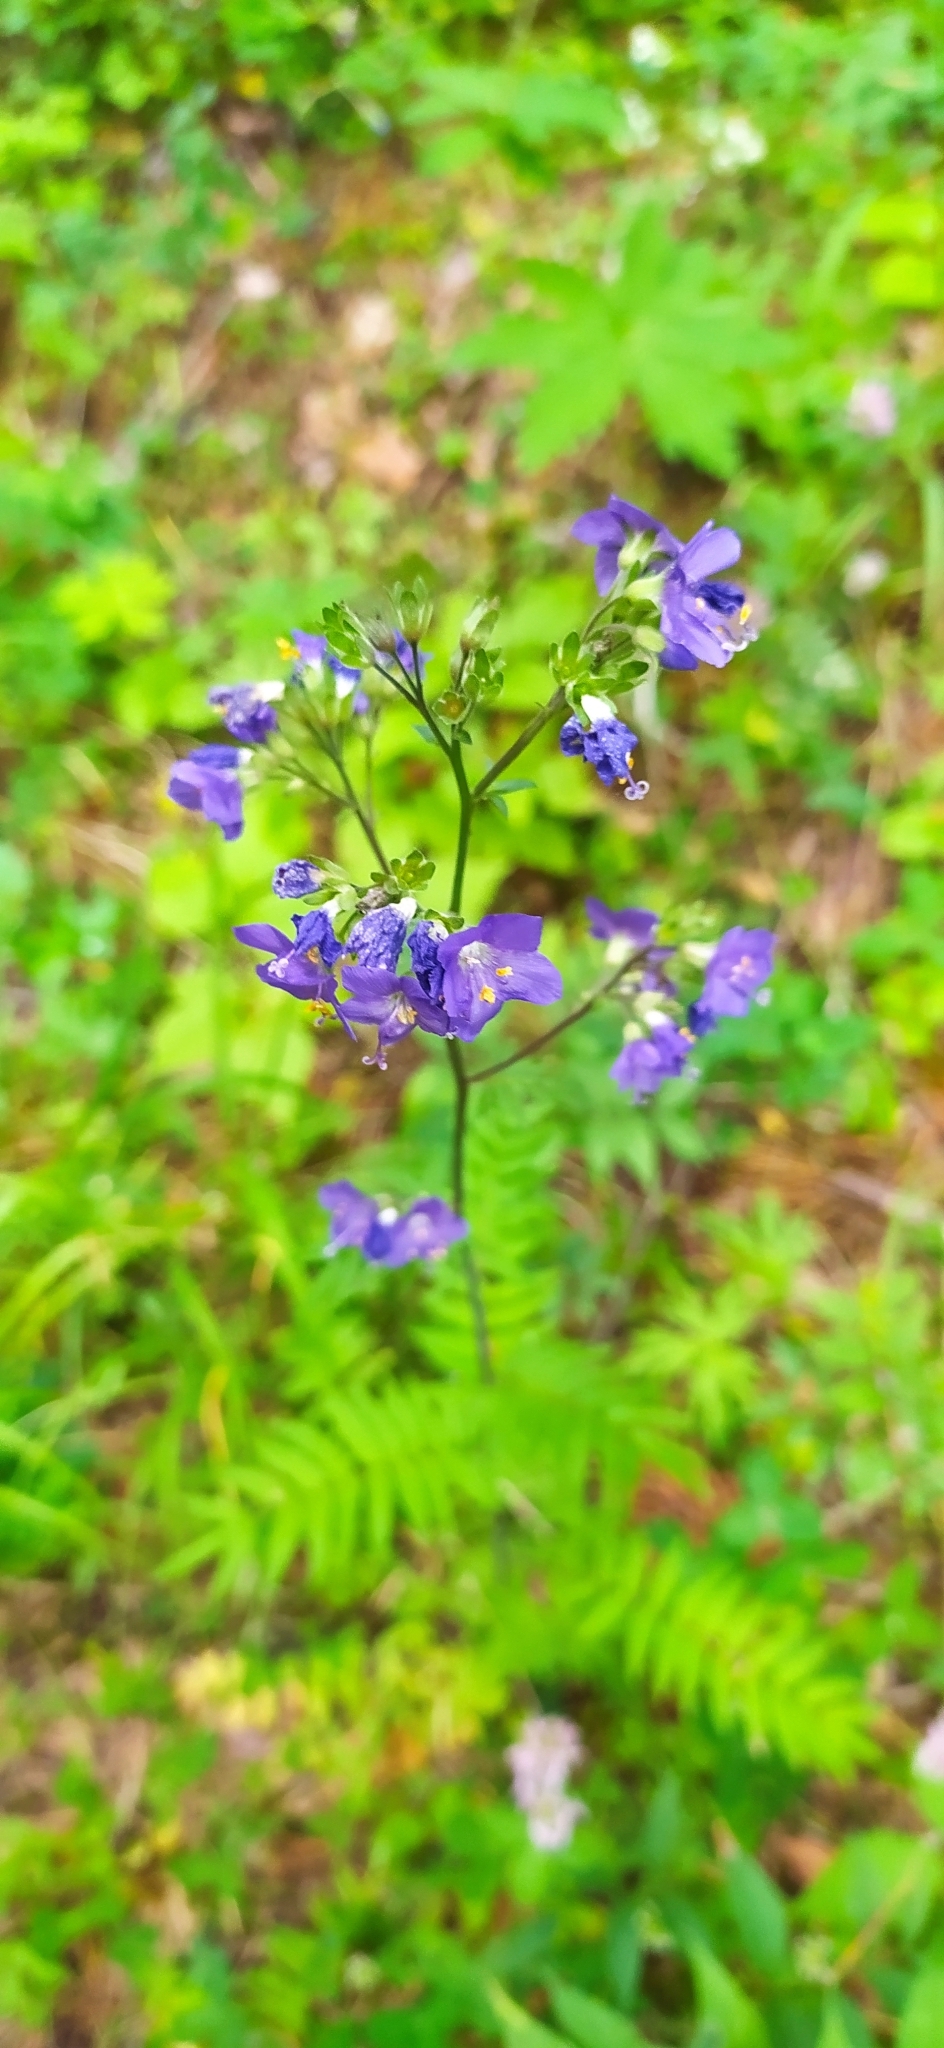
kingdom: Plantae
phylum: Tracheophyta
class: Magnoliopsida
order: Ericales
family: Polemoniaceae
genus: Polemonium
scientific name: Polemonium caeruleum
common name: Jacob's-ladder
